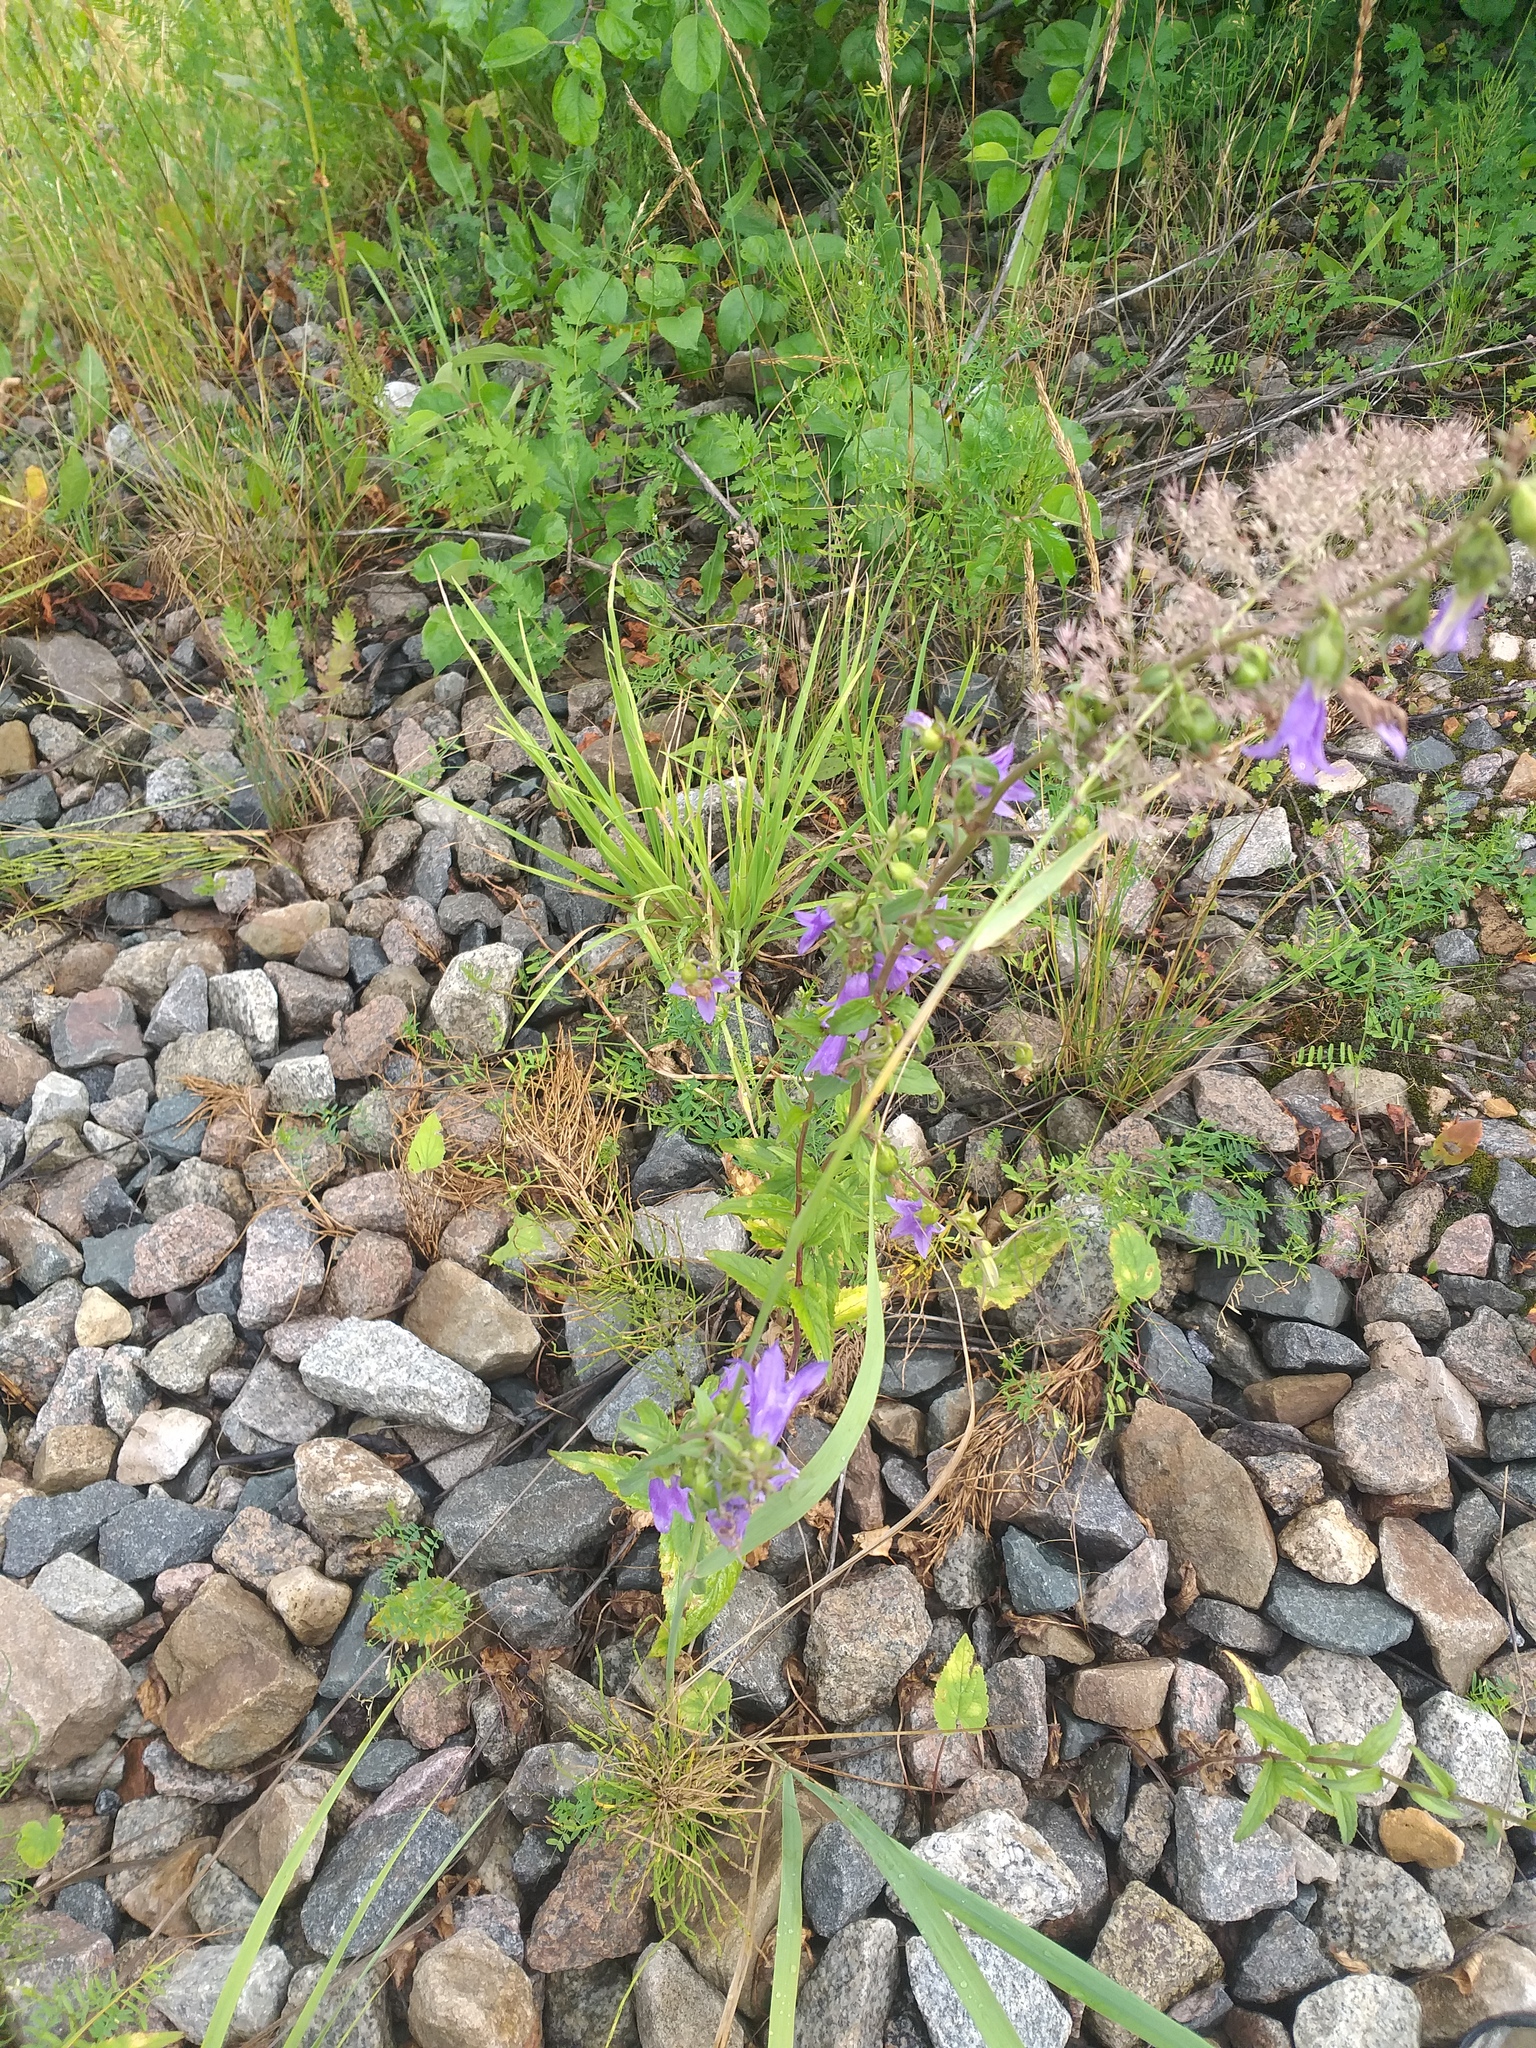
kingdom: Plantae
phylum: Tracheophyta
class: Magnoliopsida
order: Asterales
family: Campanulaceae
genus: Campanula
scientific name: Campanula rapunculoides
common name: Creeping bellflower
